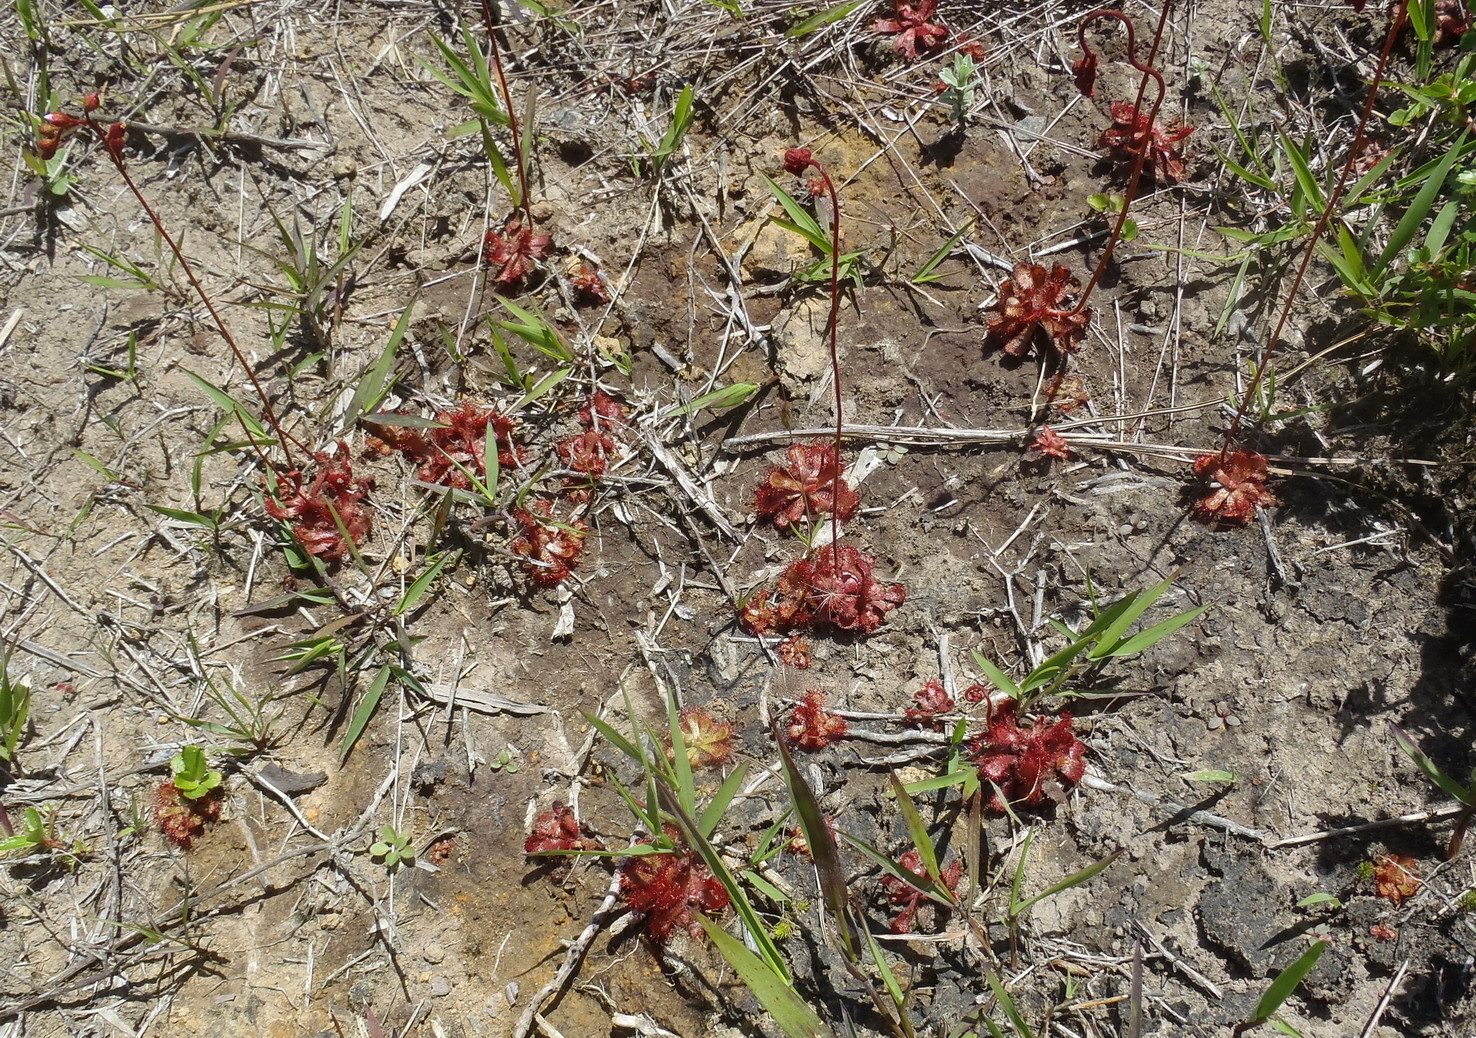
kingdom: Plantae
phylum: Tracheophyta
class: Magnoliopsida
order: Caryophyllales
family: Droseraceae
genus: Drosera
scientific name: Drosera aliciae
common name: Alice sundew
